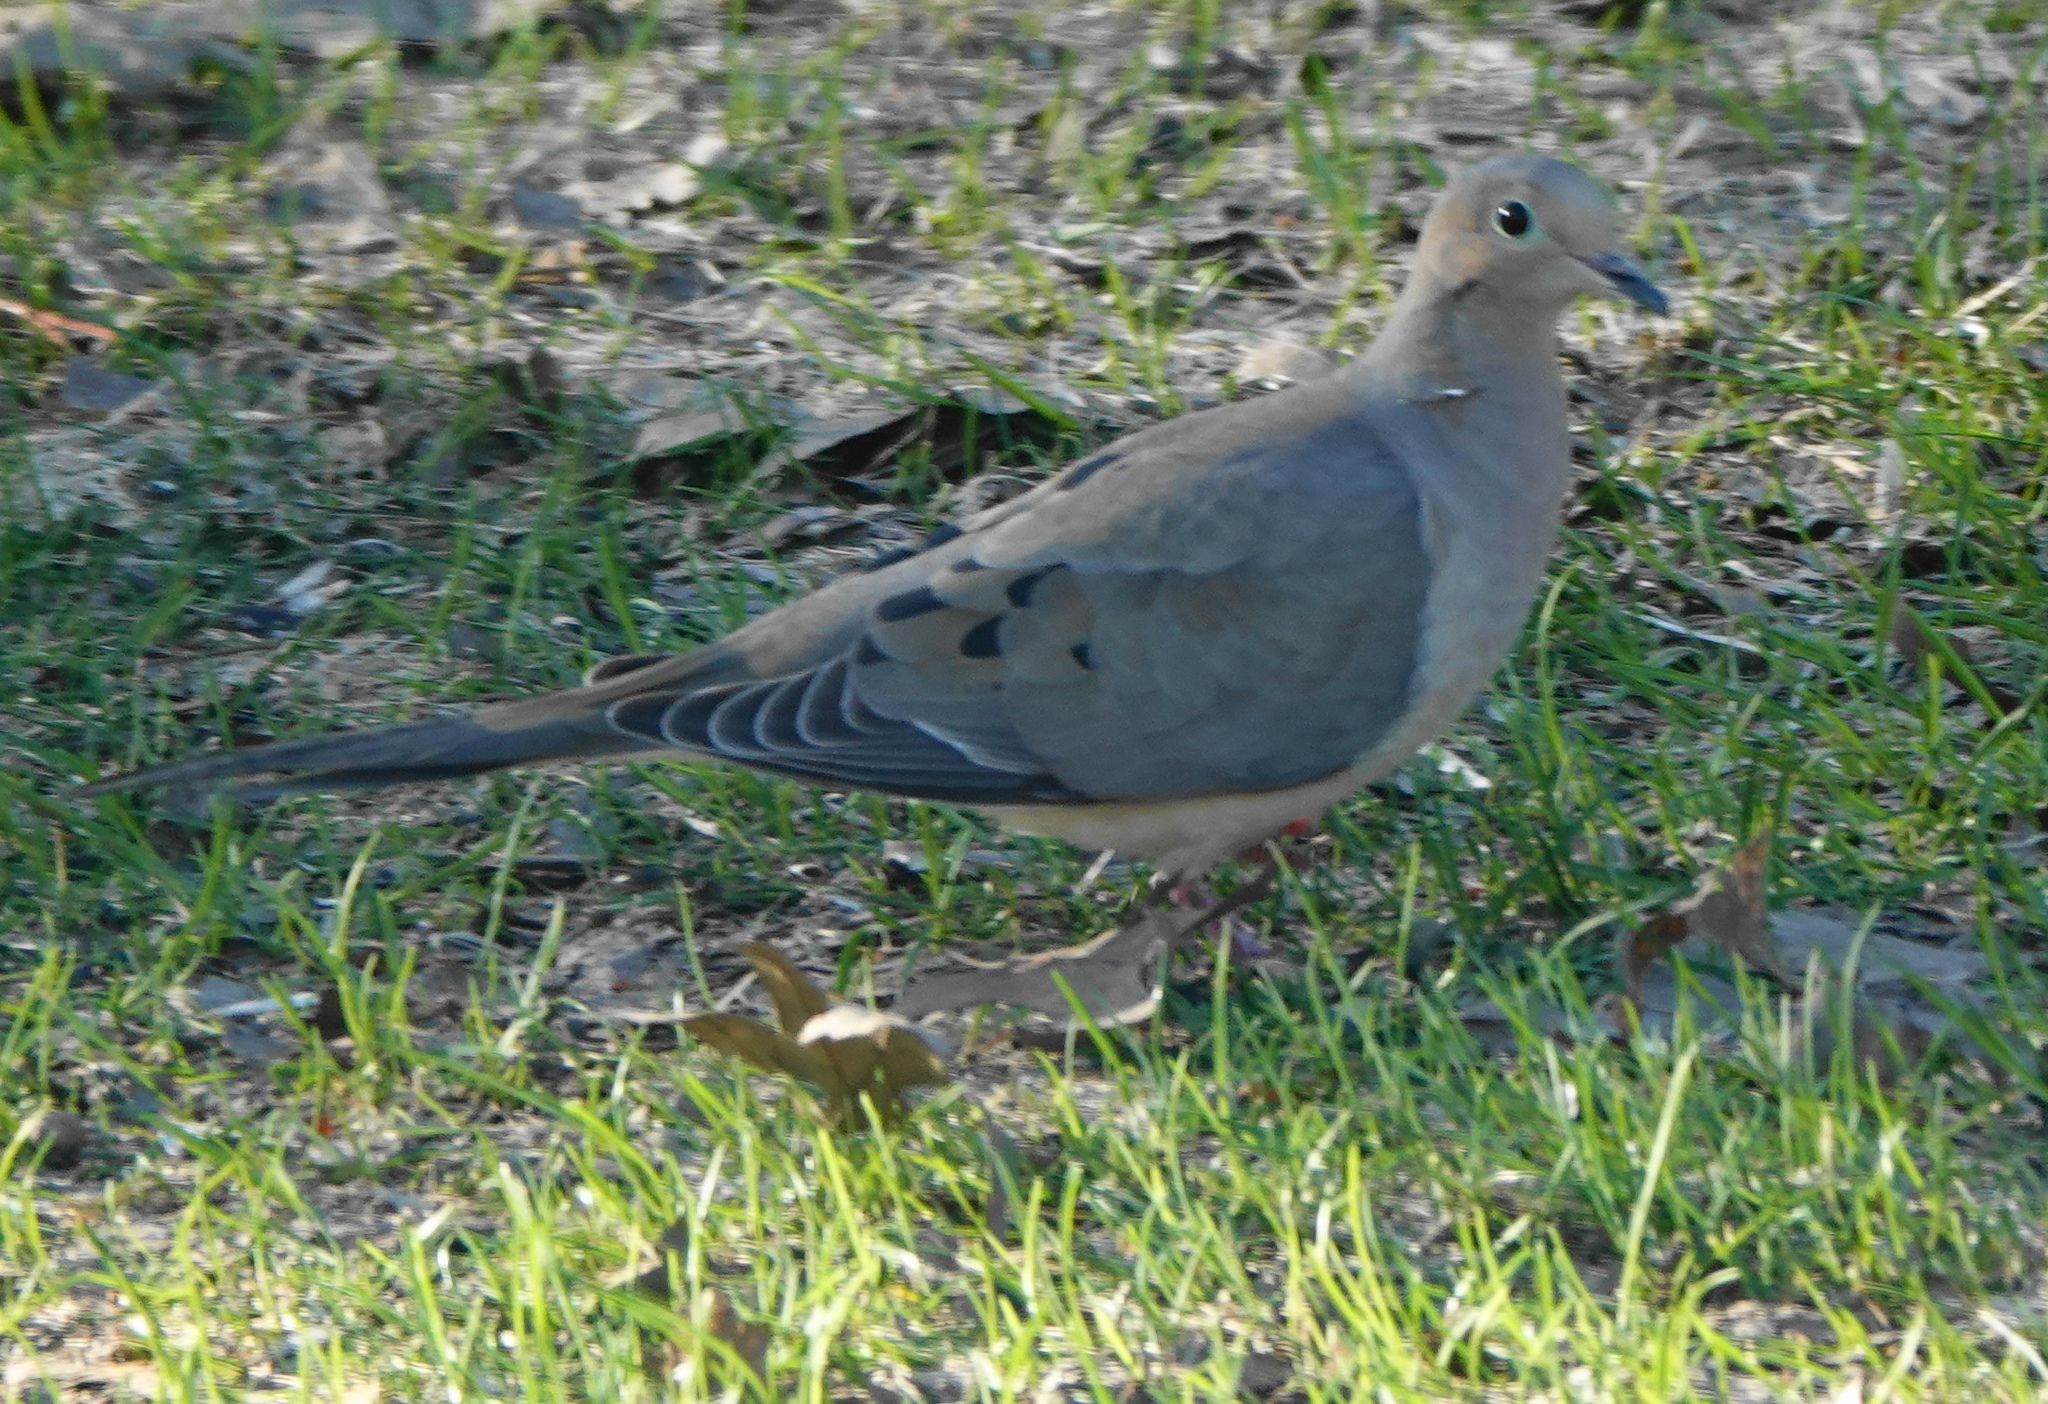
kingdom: Animalia
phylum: Chordata
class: Aves
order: Columbiformes
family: Columbidae
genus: Zenaida
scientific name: Zenaida macroura
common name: Mourning dove
